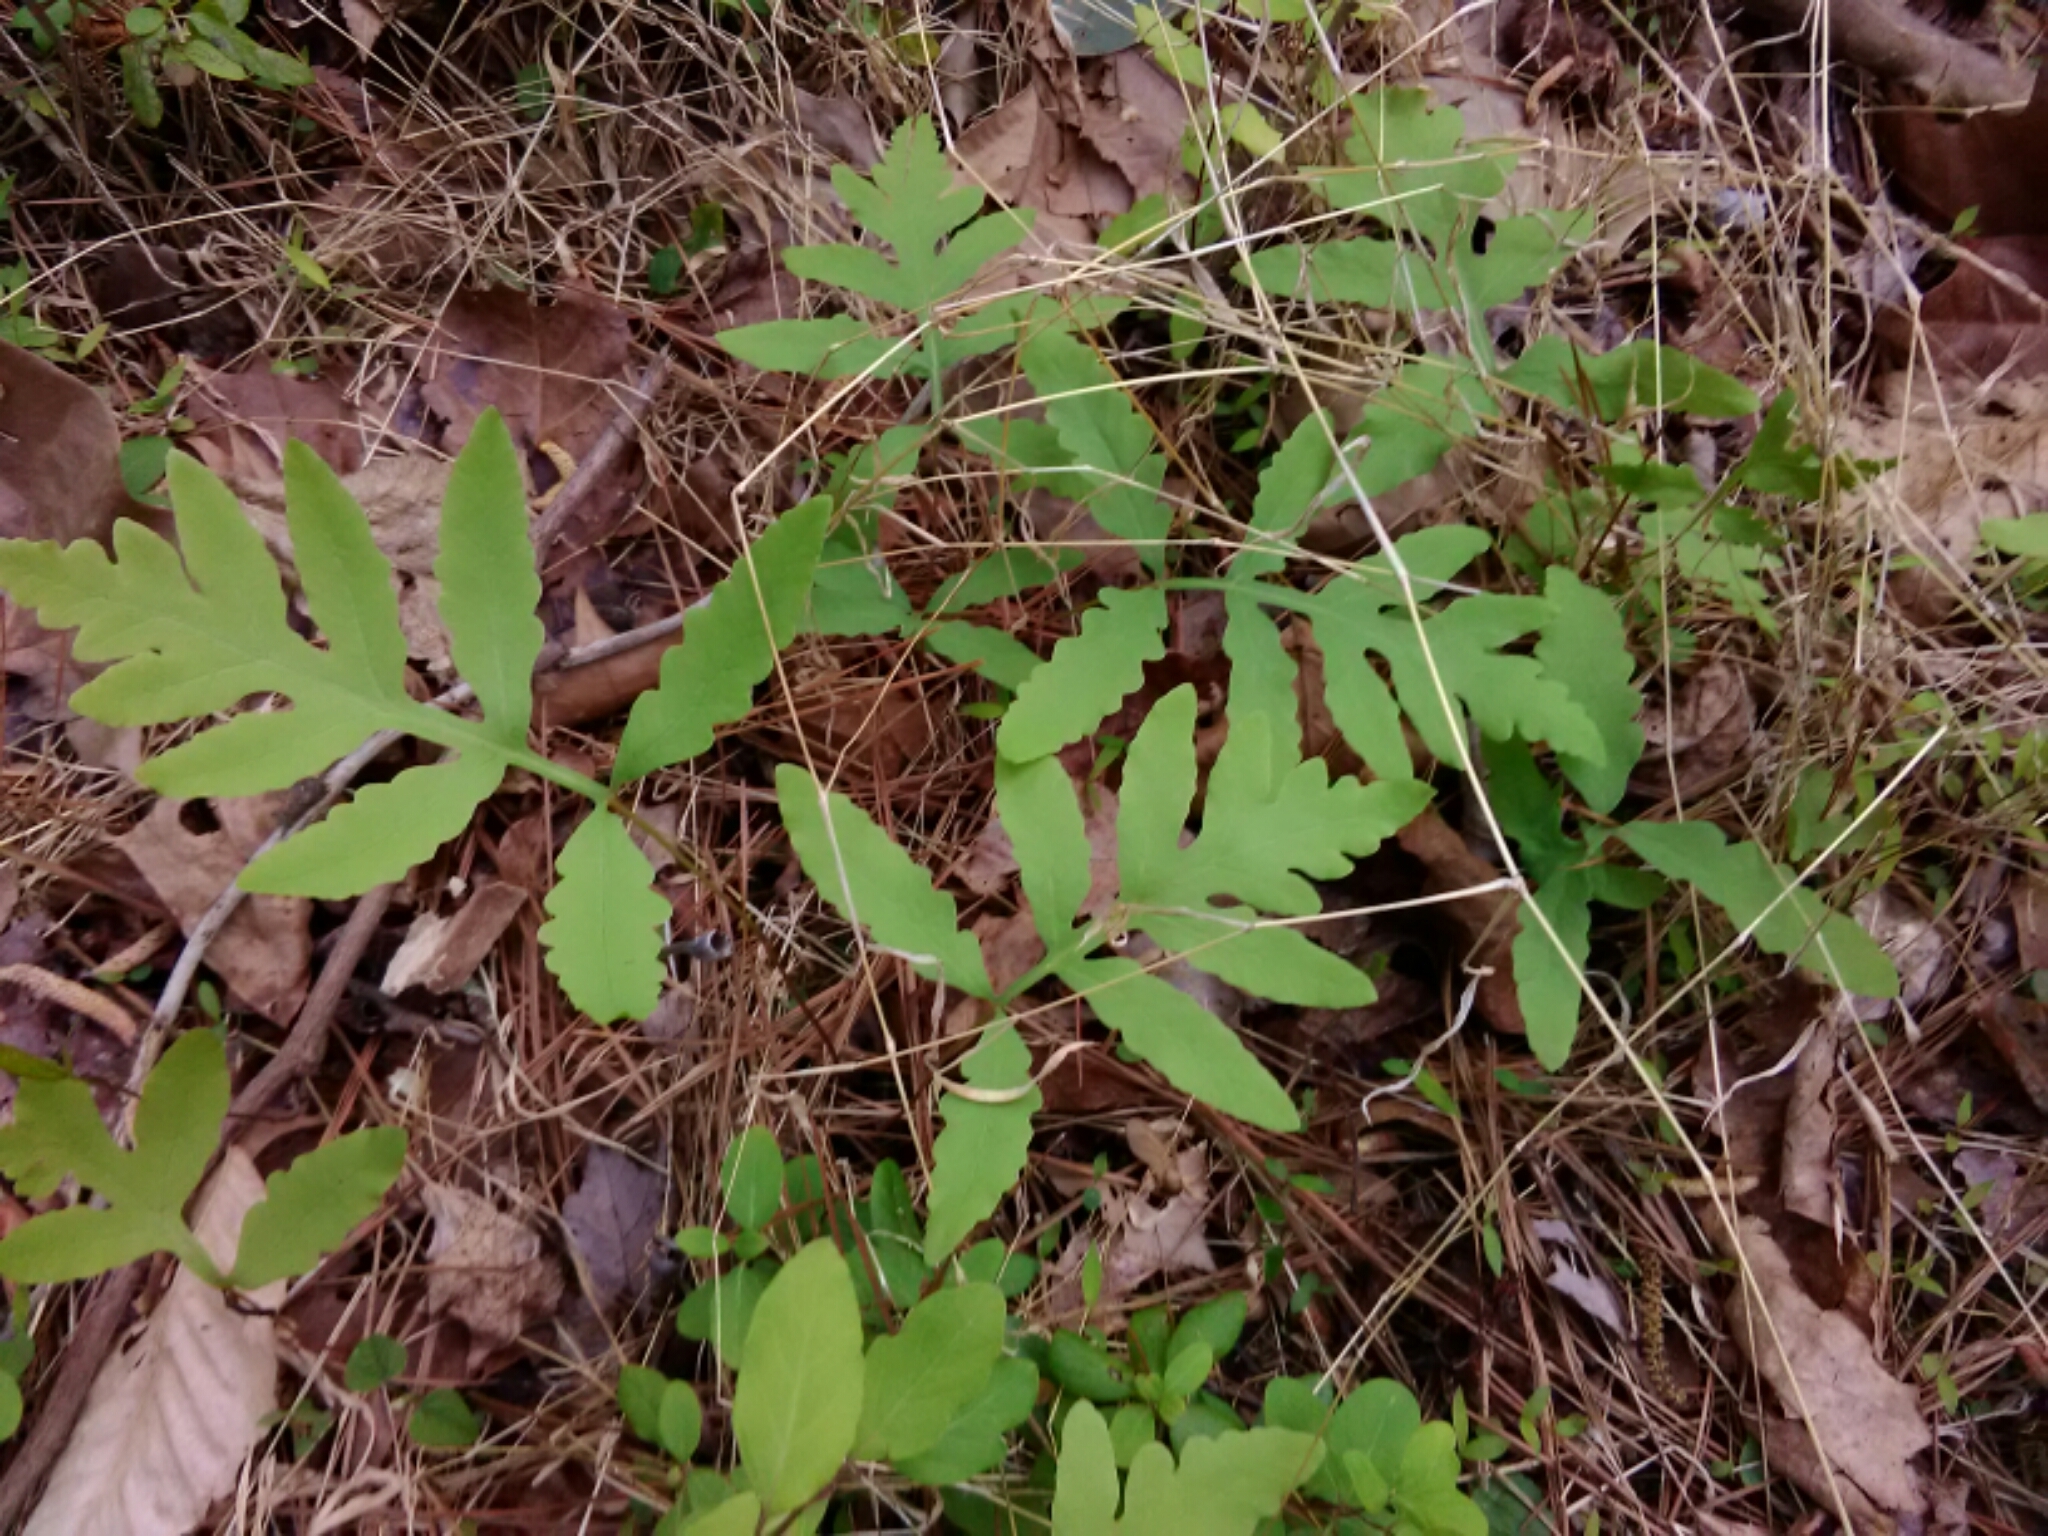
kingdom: Plantae
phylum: Tracheophyta
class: Polypodiopsida
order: Polypodiales
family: Onocleaceae
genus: Onoclea
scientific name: Onoclea sensibilis
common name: Sensitive fern
